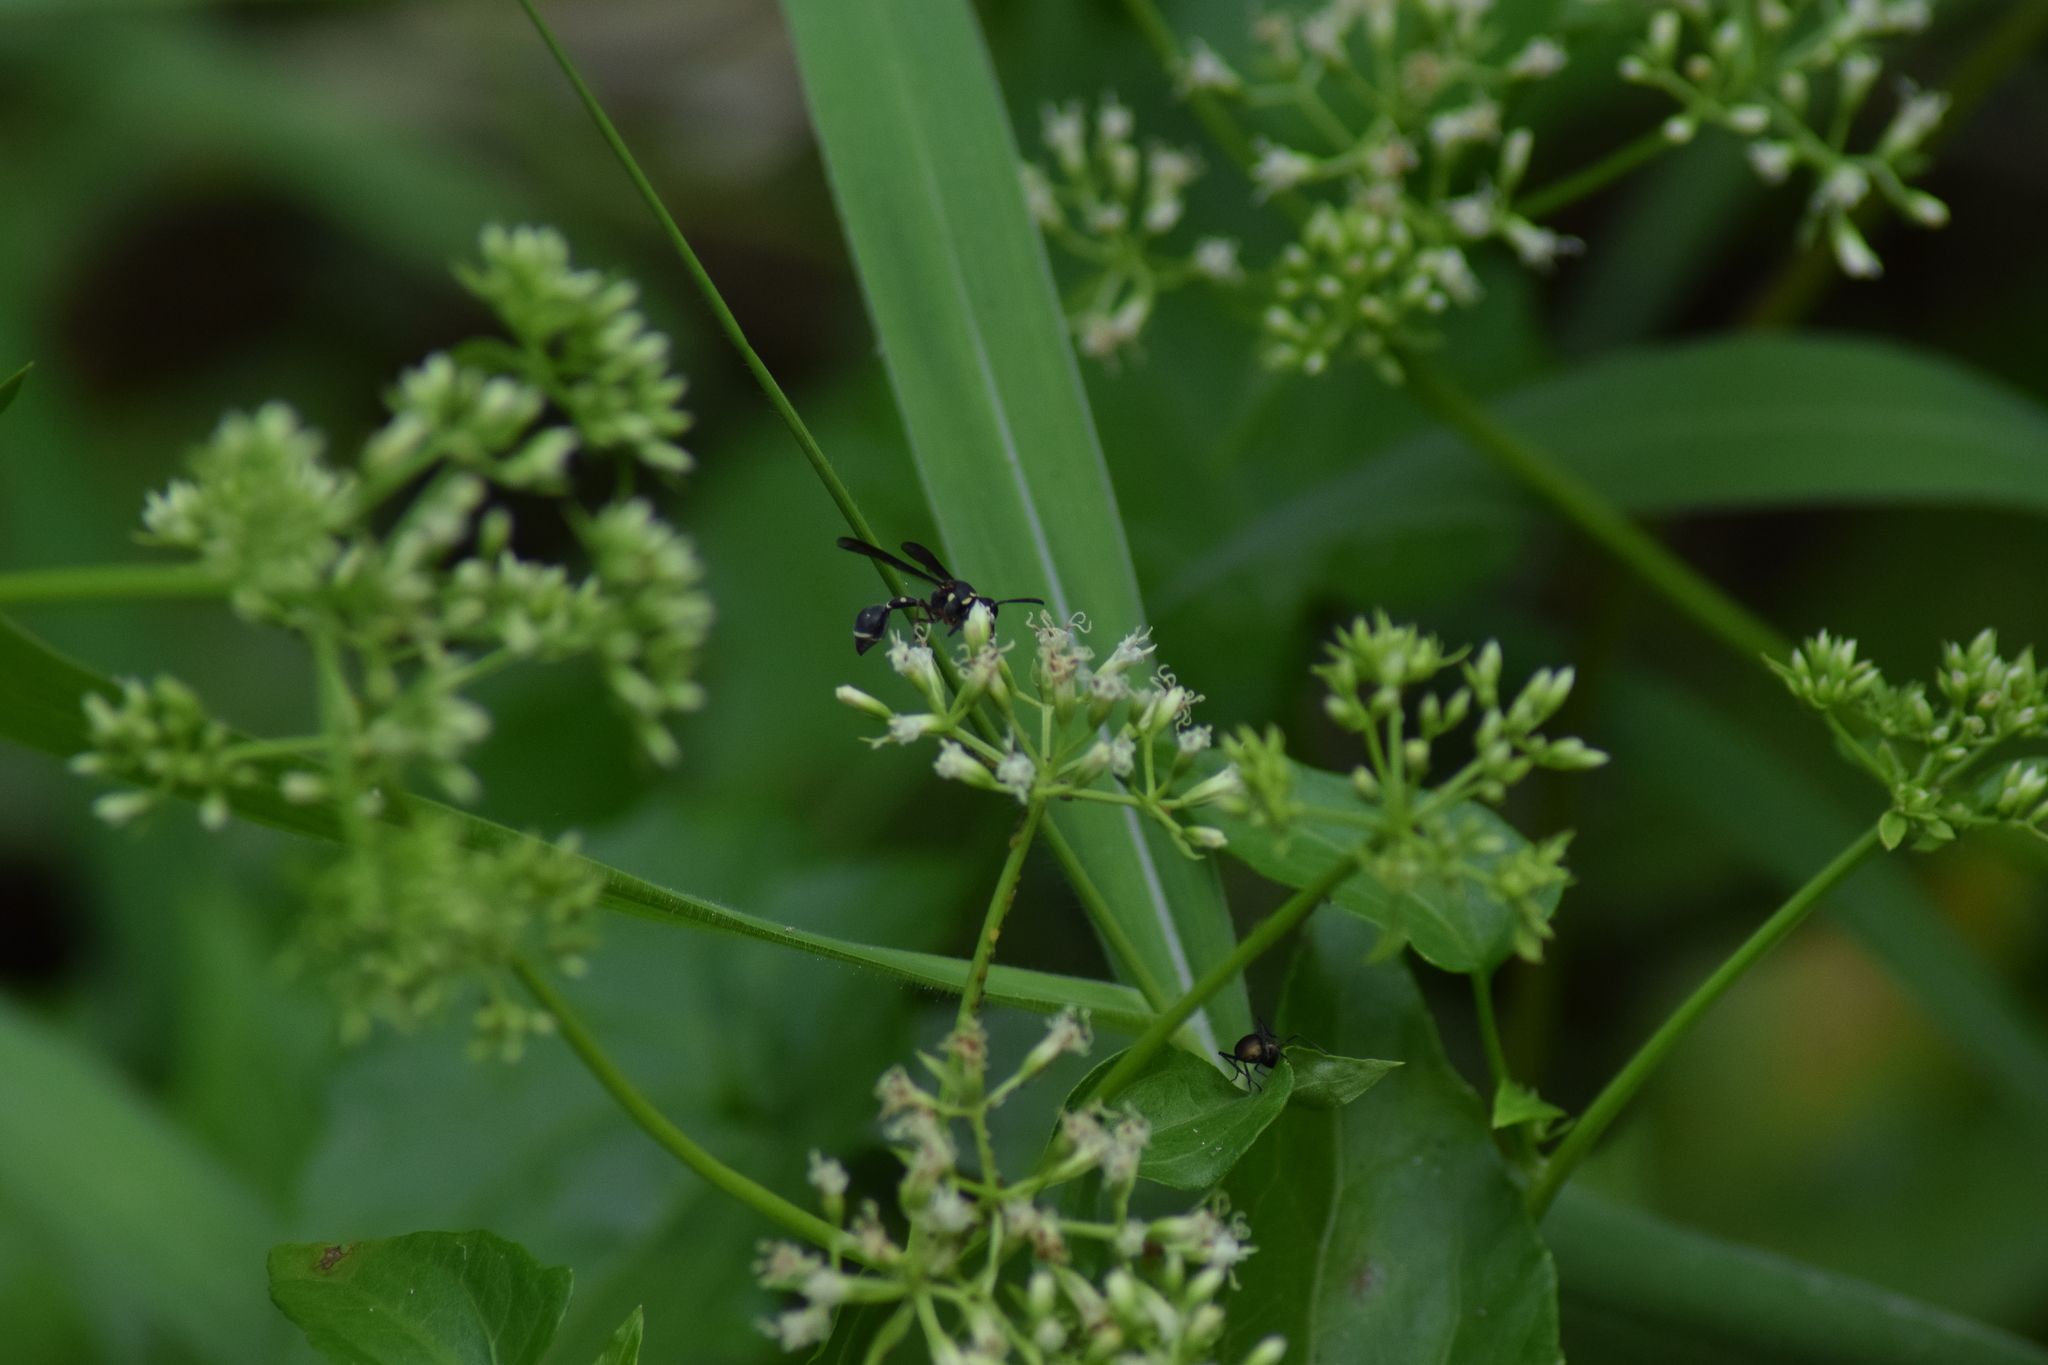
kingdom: Plantae
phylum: Tracheophyta
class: Magnoliopsida
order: Asterales
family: Asteraceae
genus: Mikania
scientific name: Mikania micrantha
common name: Mile-a-minute
